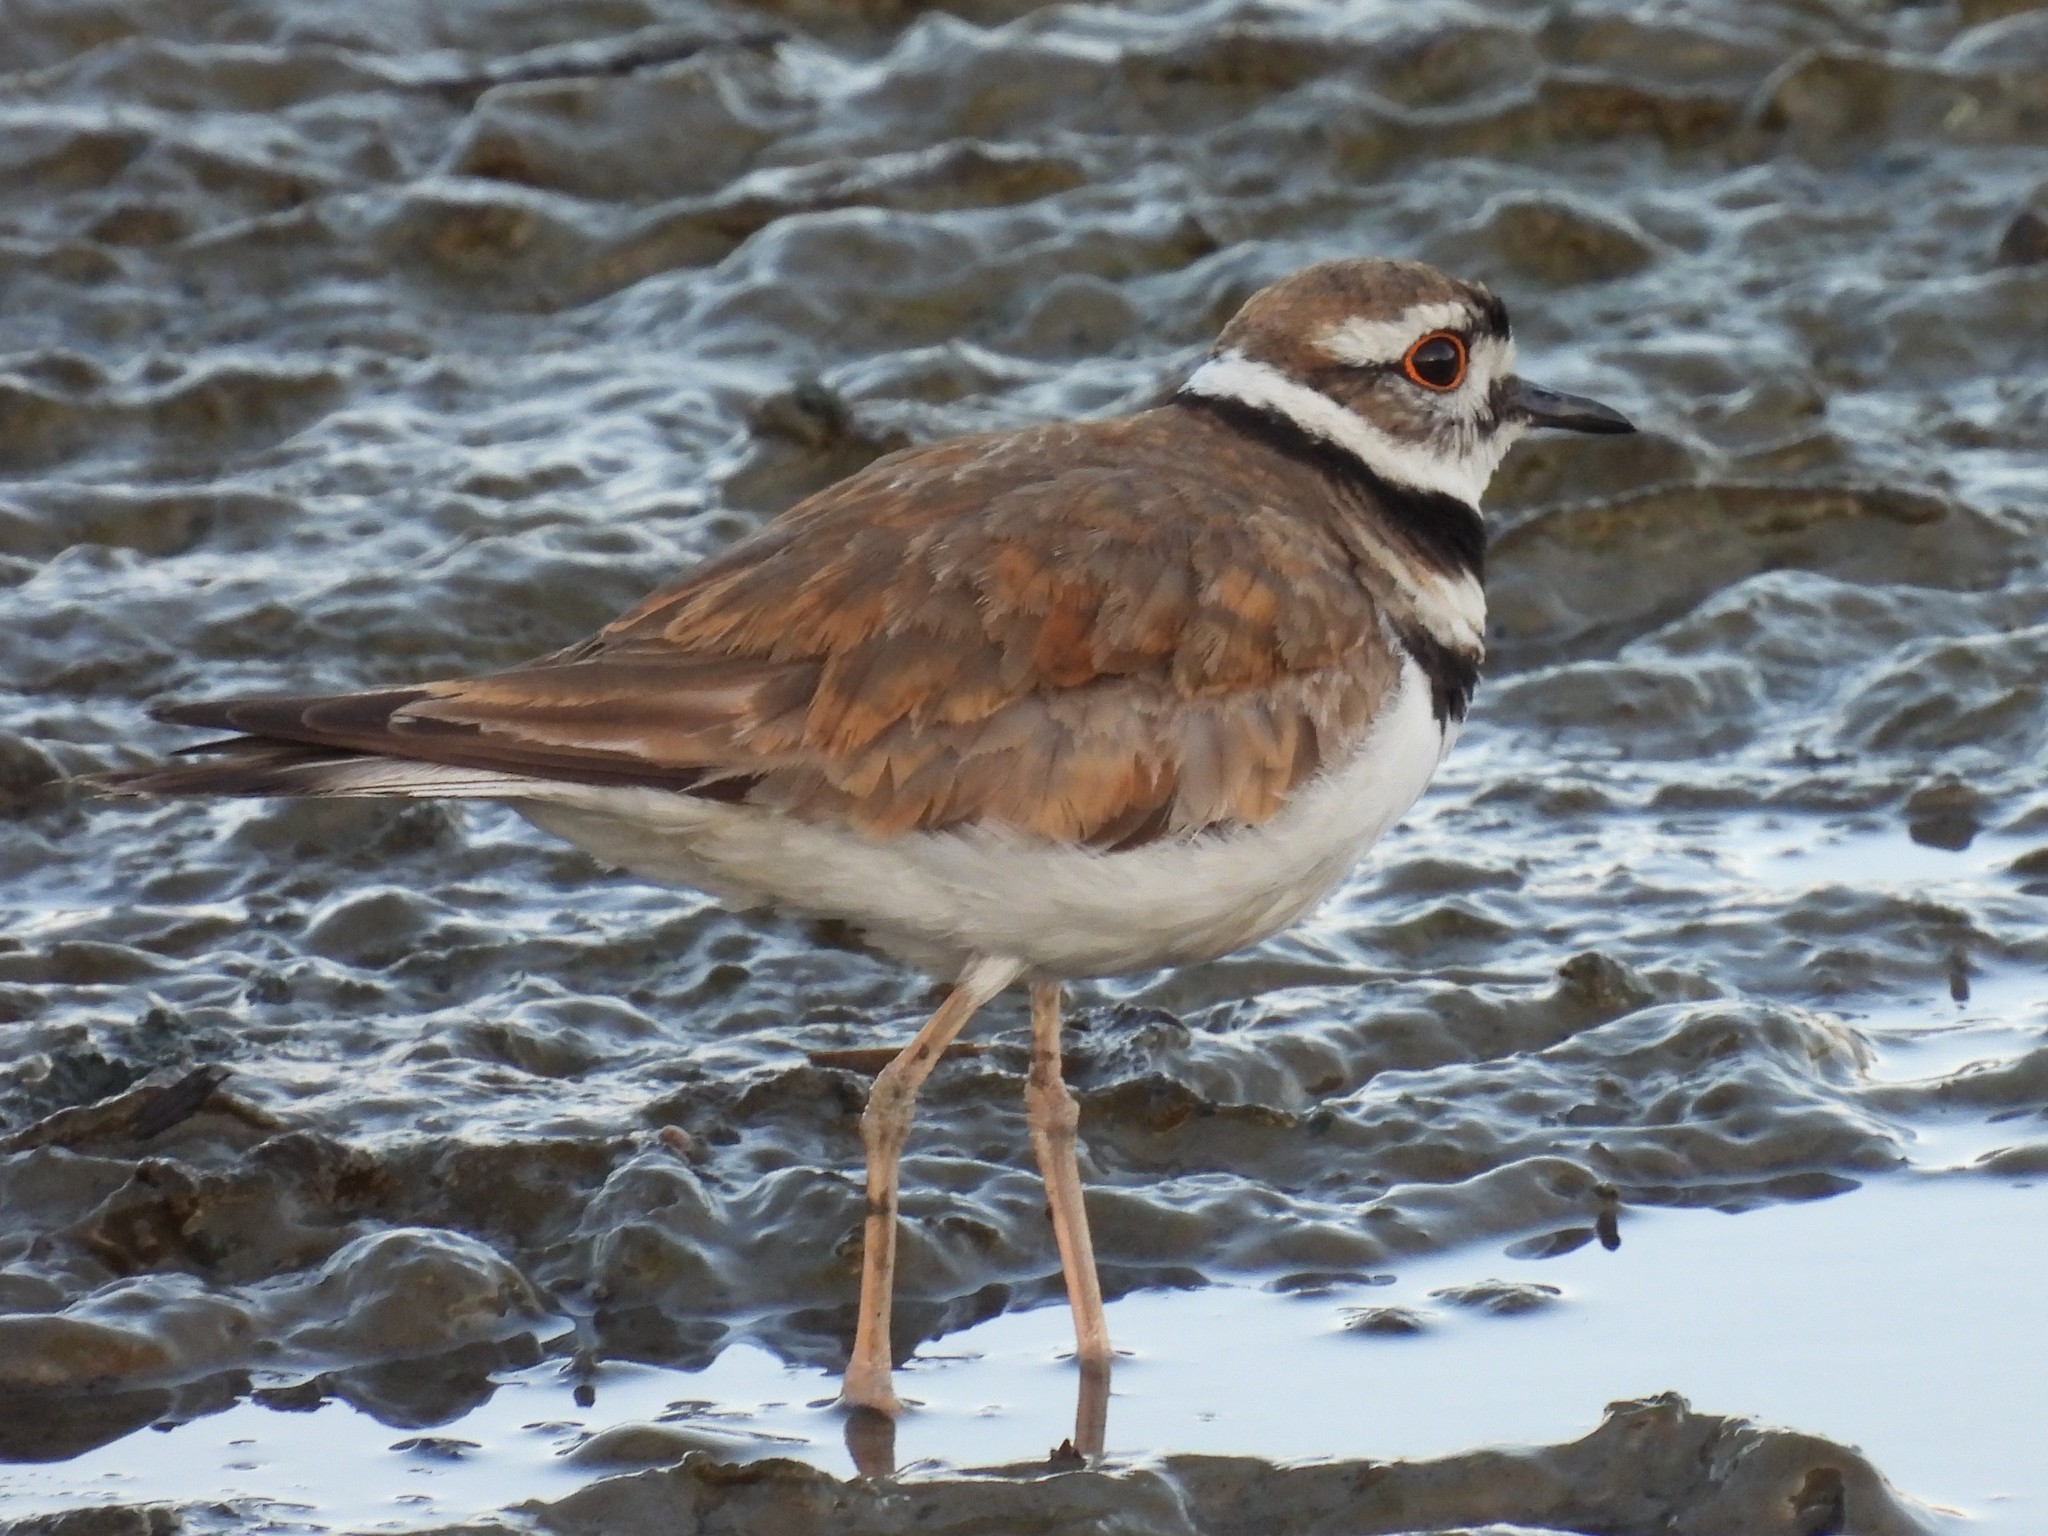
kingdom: Animalia
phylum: Chordata
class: Aves
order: Charadriiformes
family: Charadriidae
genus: Charadrius
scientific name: Charadrius vociferus
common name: Killdeer
